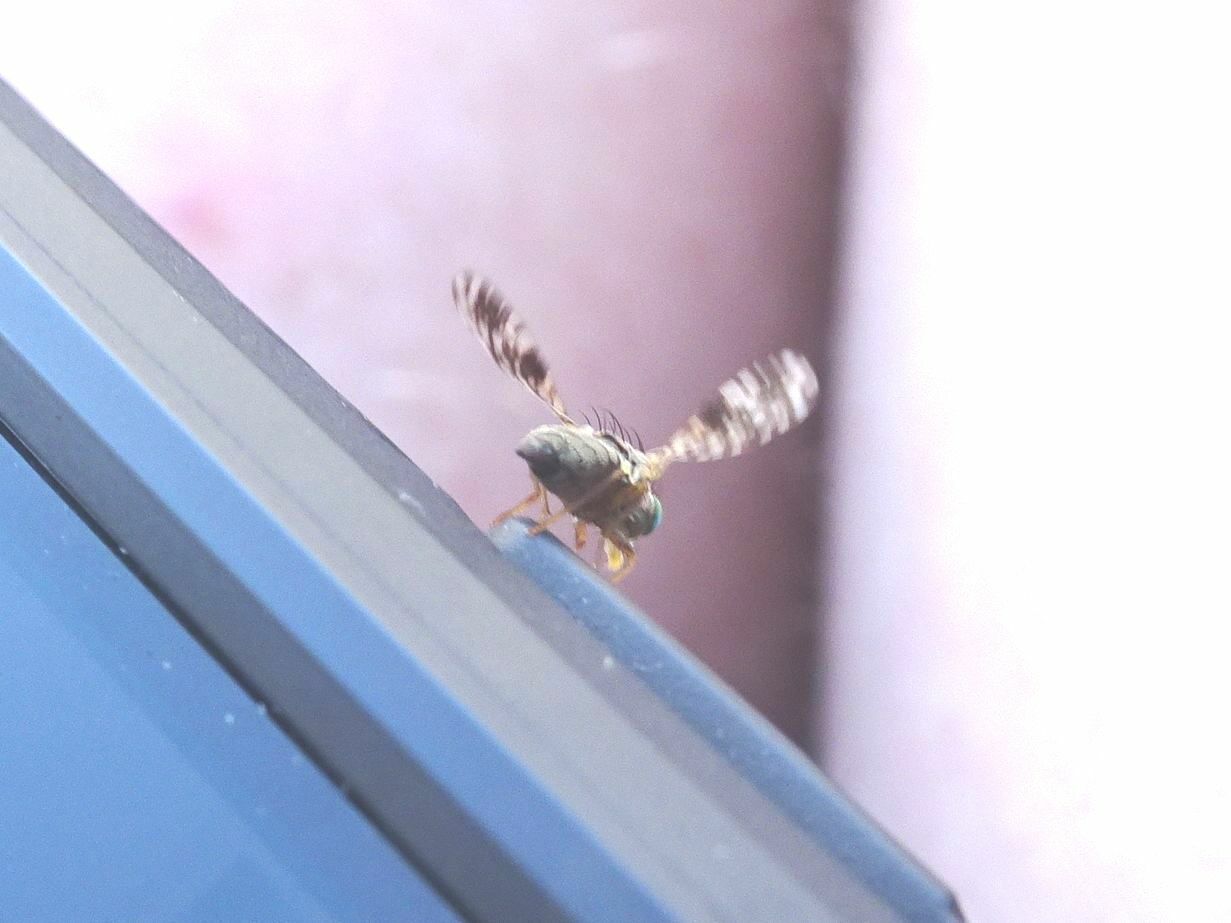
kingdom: Animalia
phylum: Arthropoda
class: Insecta
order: Diptera
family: Tephritidae
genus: Tephritis
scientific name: Tephritis matricariae
